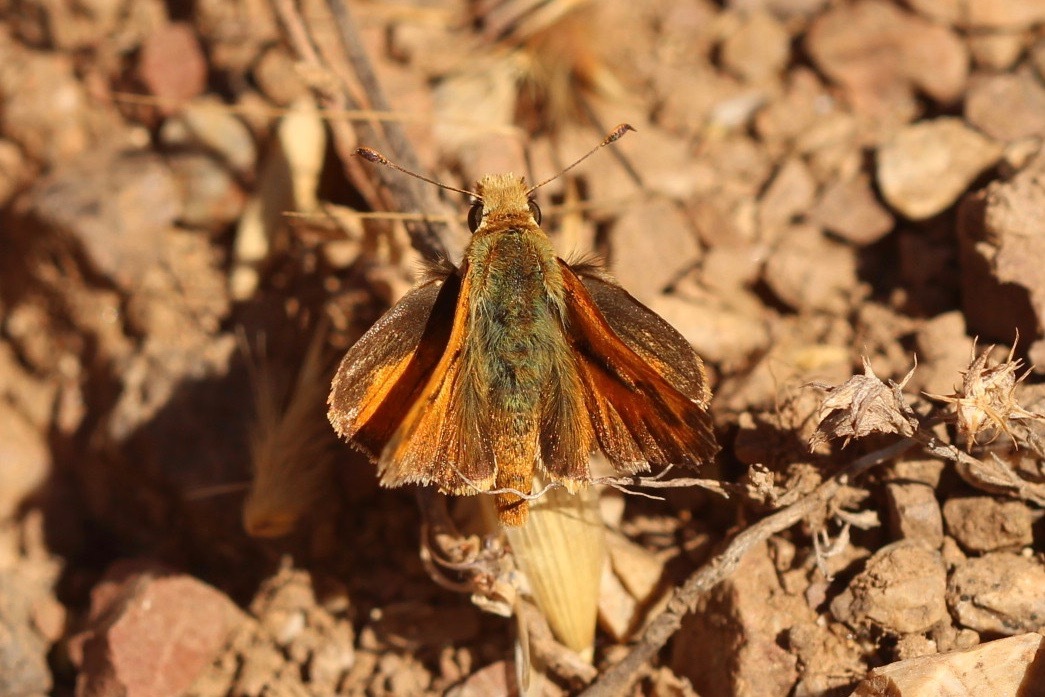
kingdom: Animalia
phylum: Arthropoda
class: Insecta
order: Lepidoptera
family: Hesperiidae
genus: Ochlodes
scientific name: Ochlodes sylvanoides
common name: Woodland skipper
